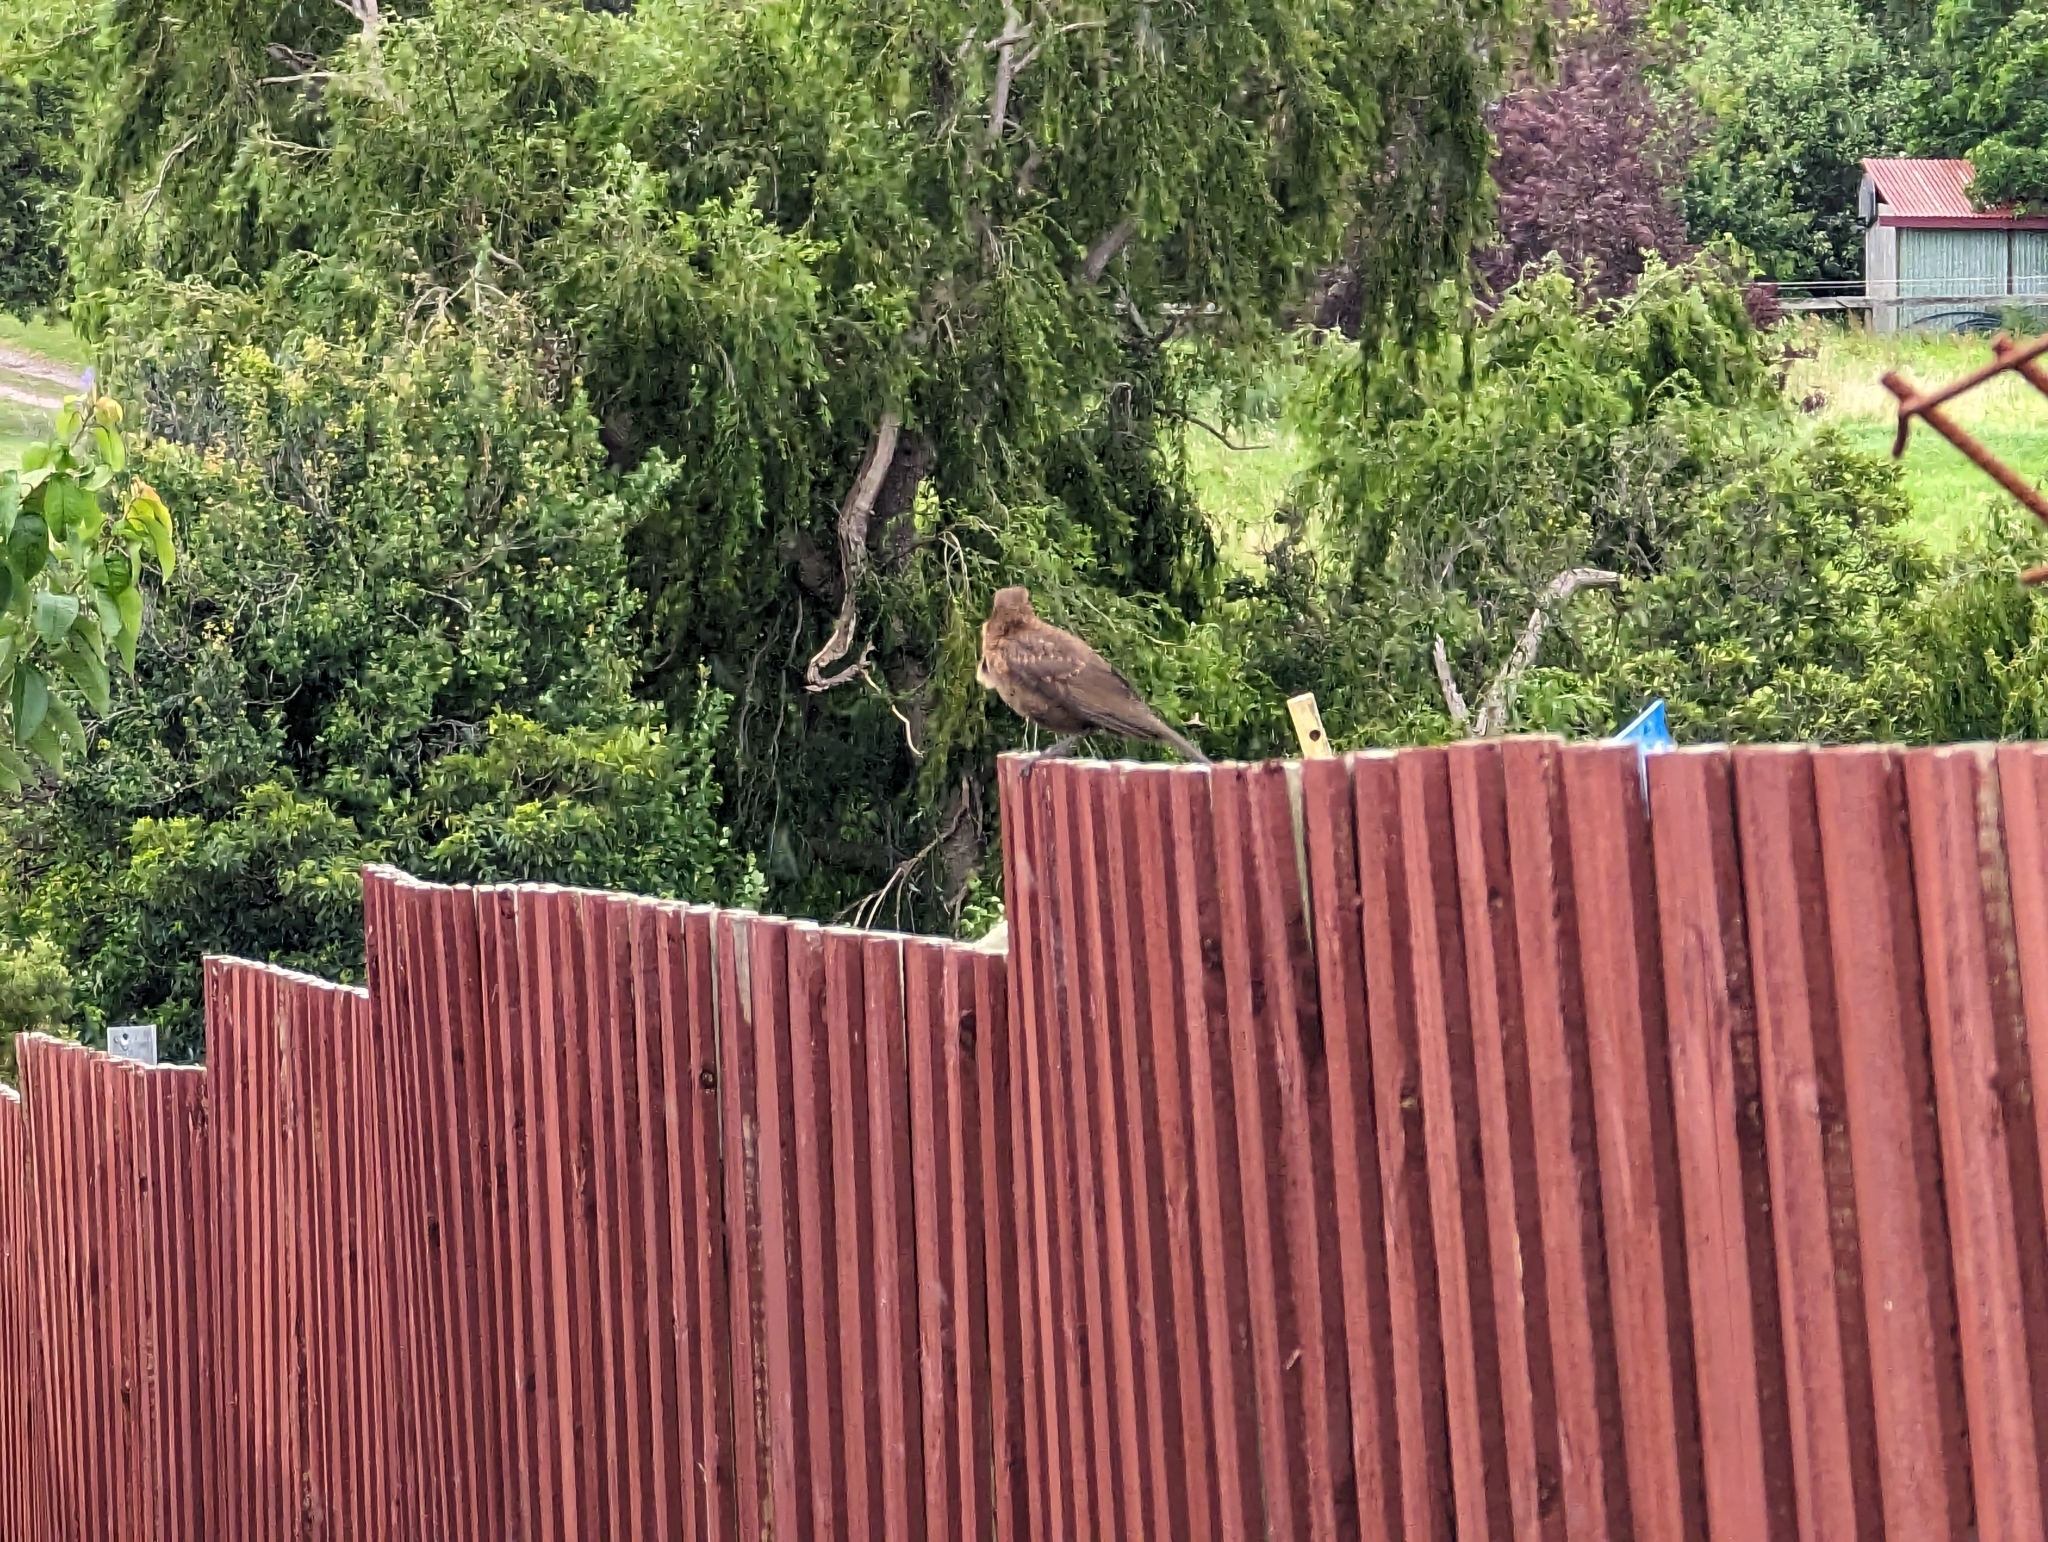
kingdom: Animalia
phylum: Chordata
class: Aves
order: Passeriformes
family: Turdidae
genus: Turdus
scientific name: Turdus merula
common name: Common blackbird
